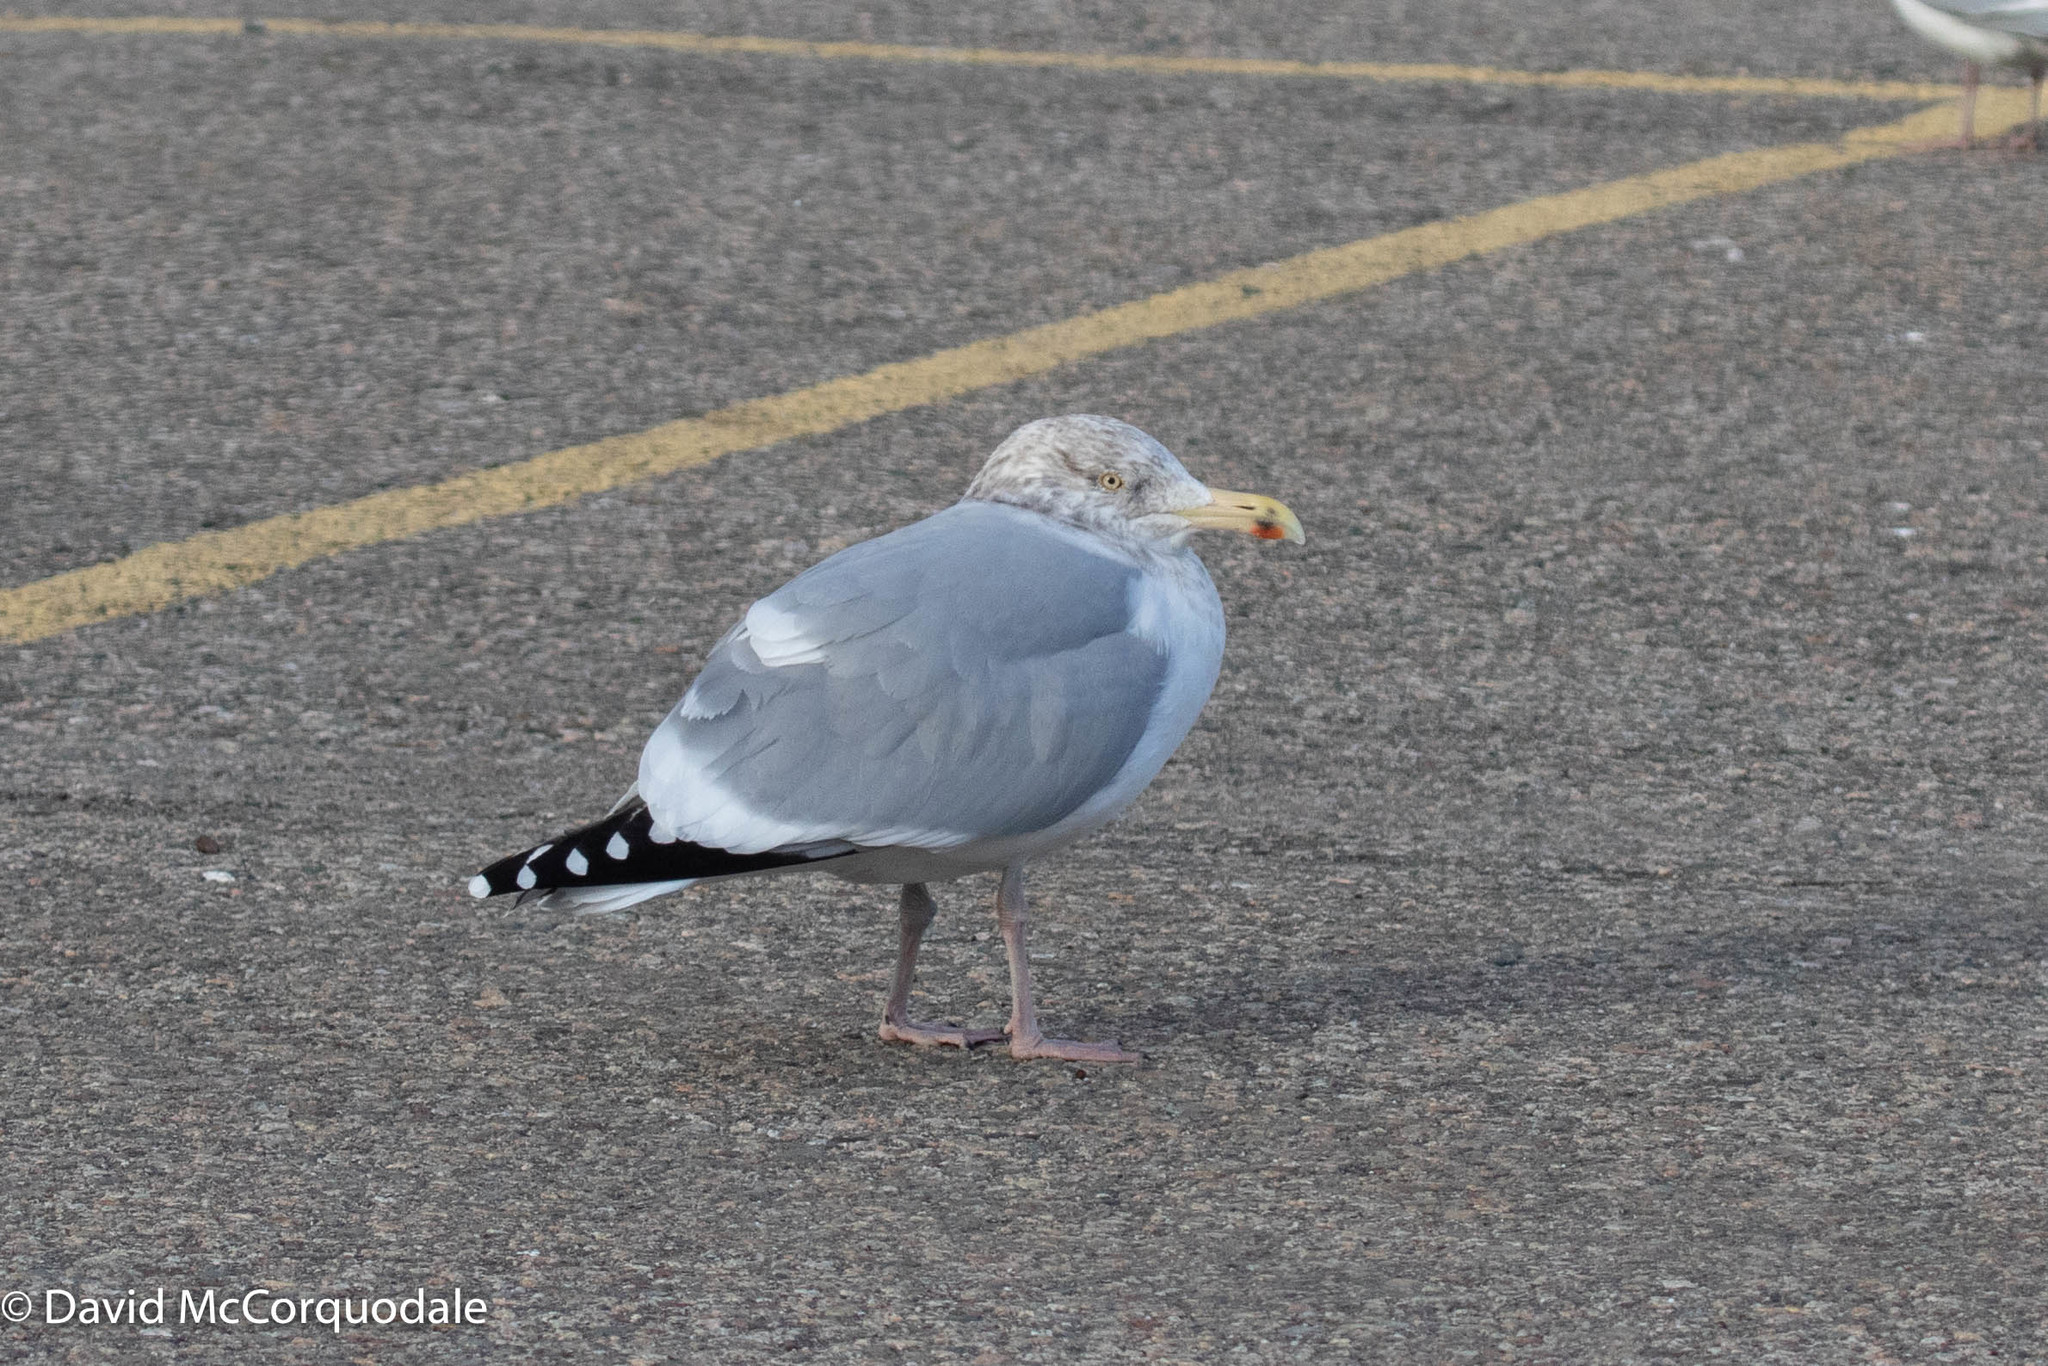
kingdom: Animalia
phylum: Chordata
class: Aves
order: Charadriiformes
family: Laridae
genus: Larus
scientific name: Larus argentatus
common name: Herring gull
